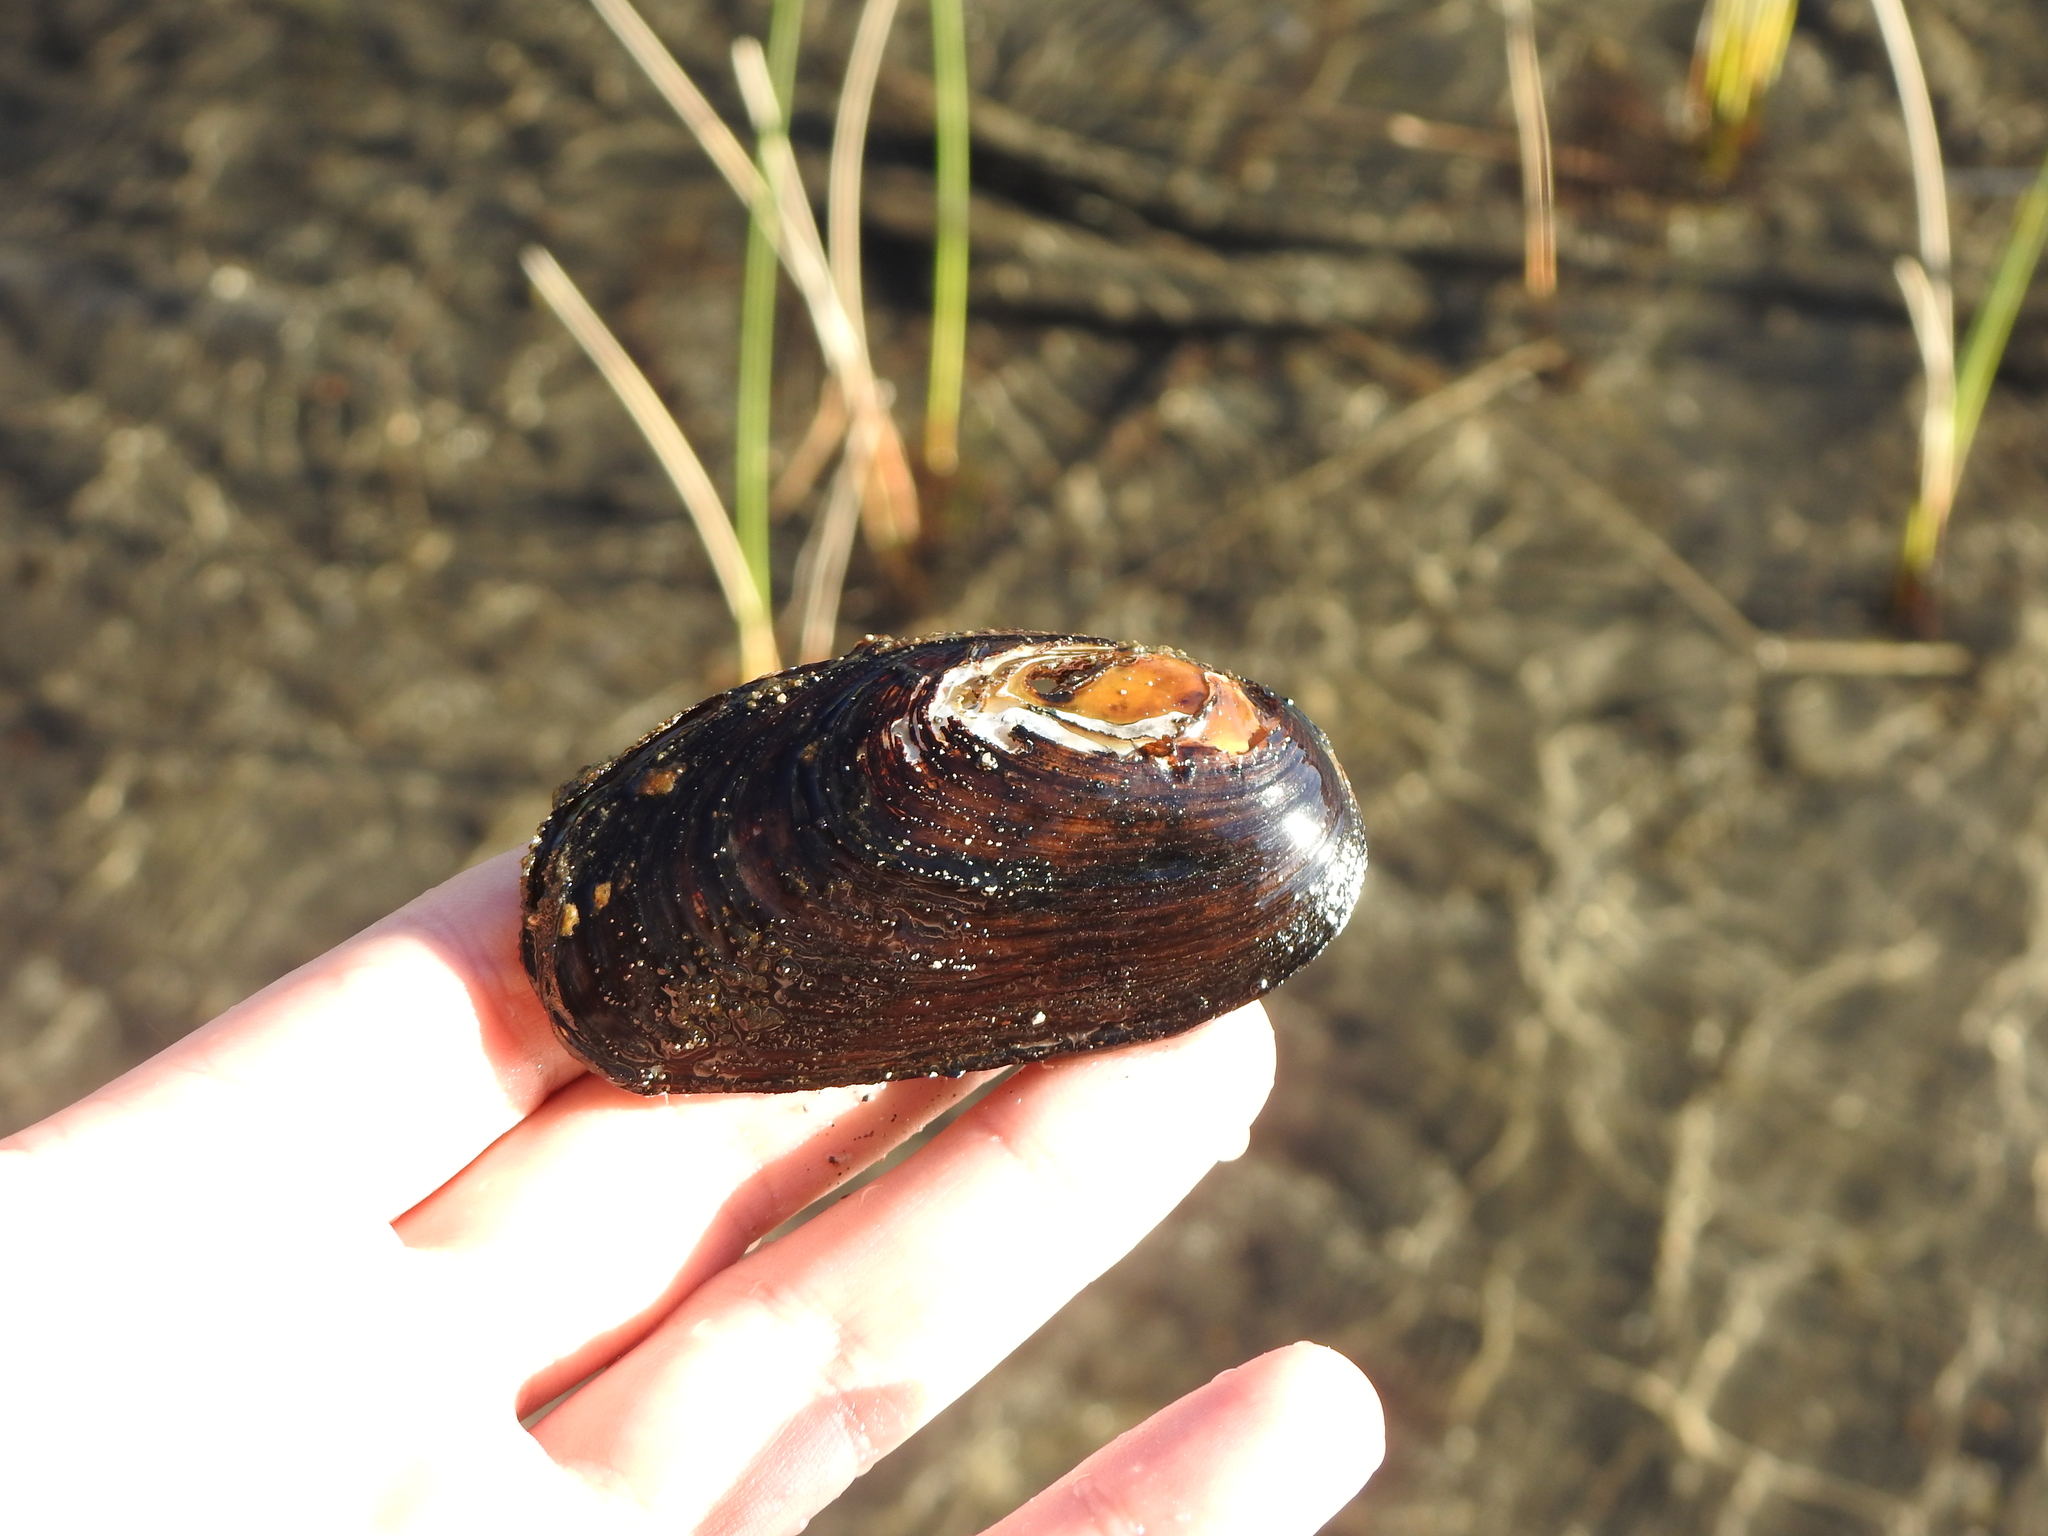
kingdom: Animalia
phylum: Mollusca
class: Bivalvia
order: Unionida
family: Hyriidae
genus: Diplodon
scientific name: Diplodon chilensis
